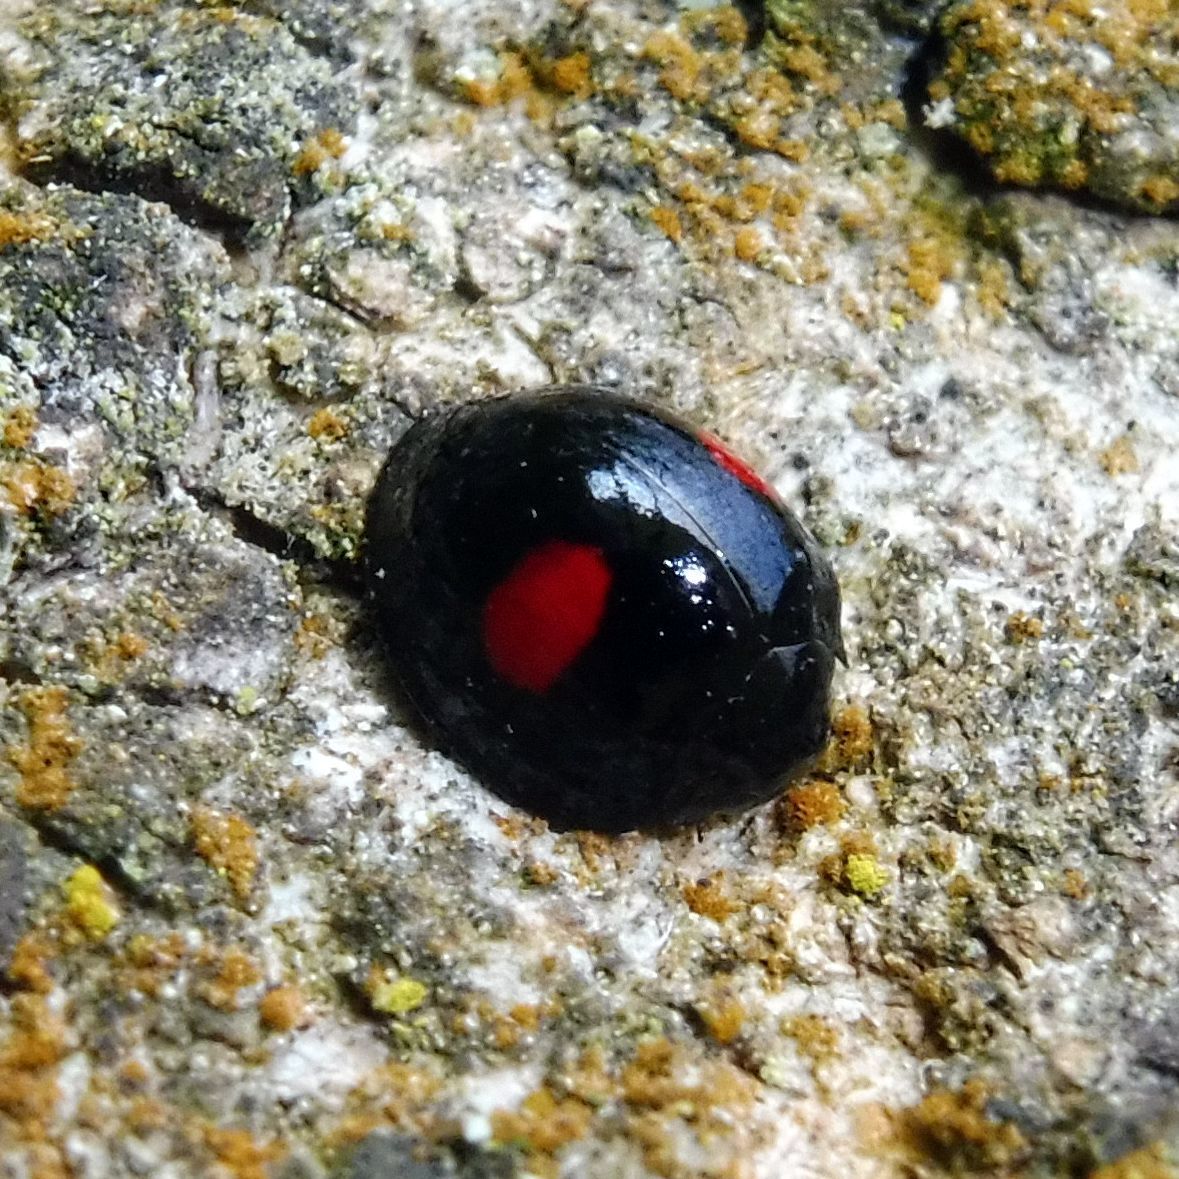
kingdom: Animalia
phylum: Arthropoda
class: Insecta
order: Coleoptera
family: Coccinellidae
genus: Chilocorus
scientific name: Chilocorus renipustulatus
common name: Kidney-spot ladybird
